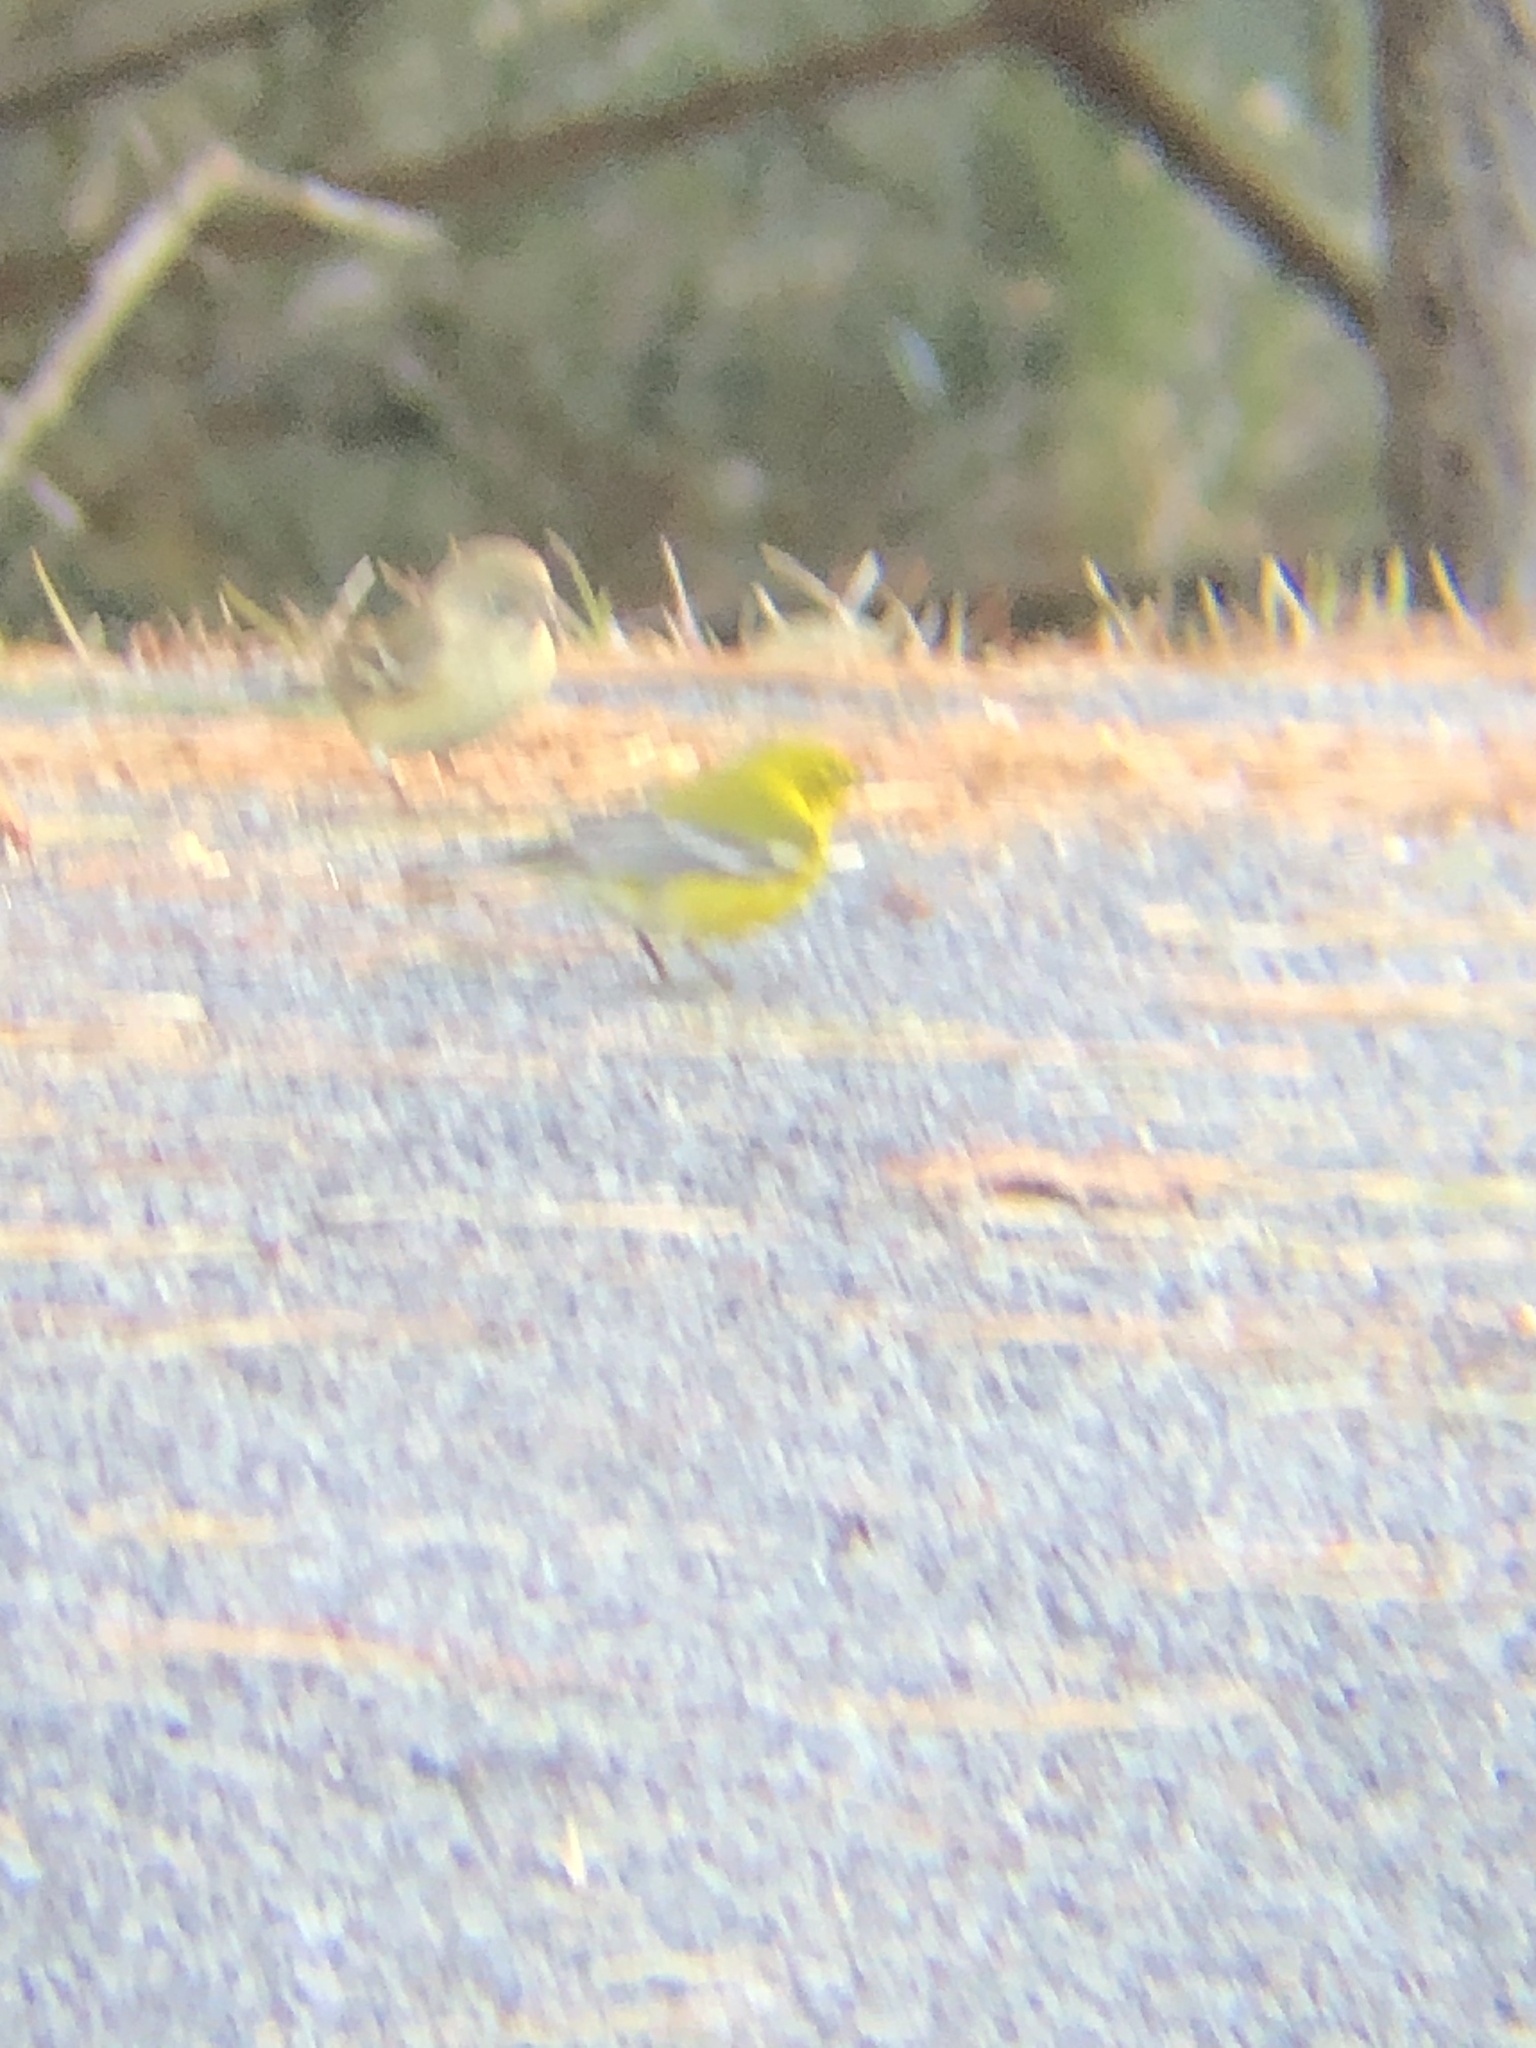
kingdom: Animalia
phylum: Chordata
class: Aves
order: Passeriformes
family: Parulidae
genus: Setophaga
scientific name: Setophaga pinus
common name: Pine warbler
